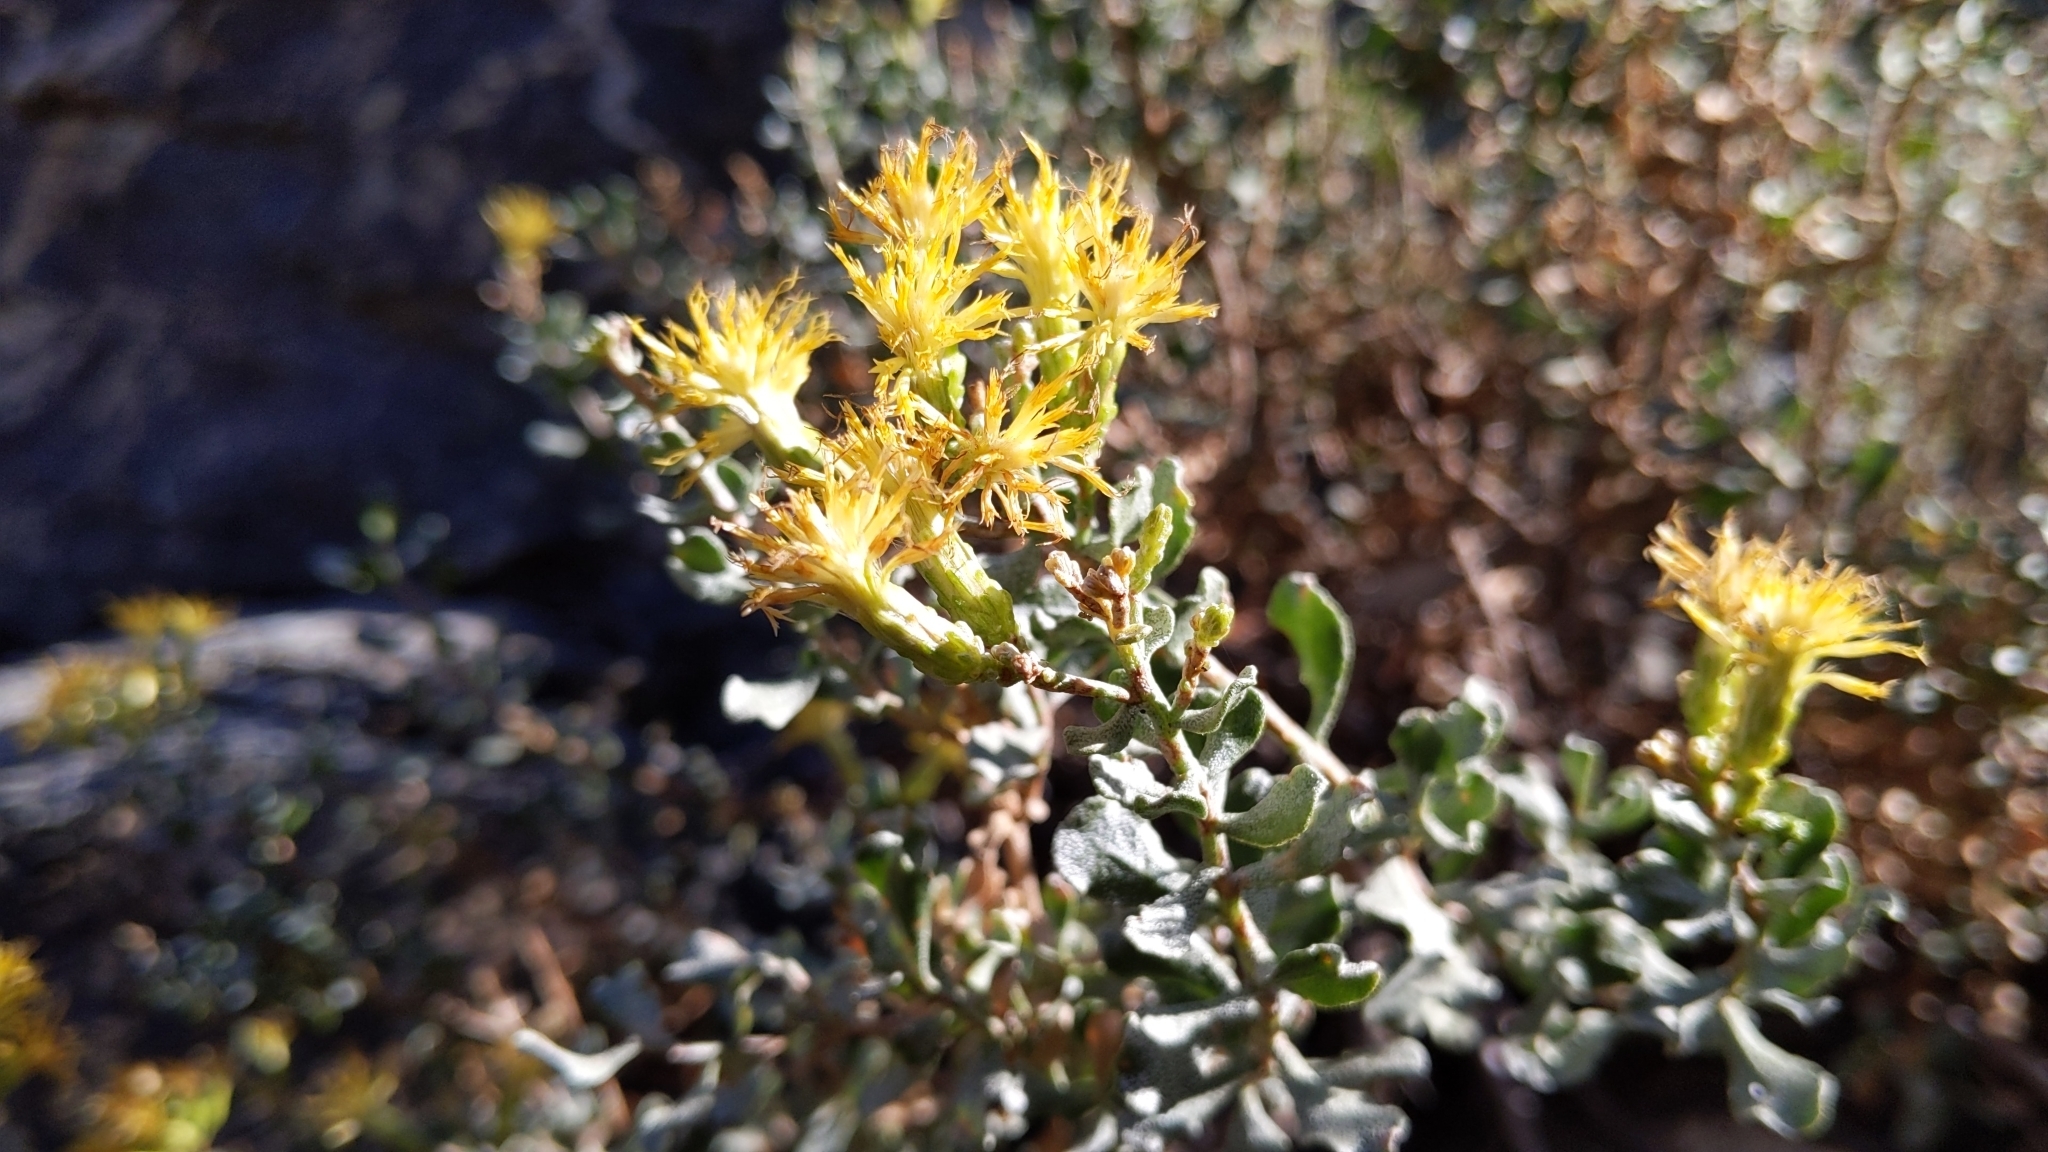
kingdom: Plantae
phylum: Tracheophyta
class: Magnoliopsida
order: Asterales
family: Asteraceae
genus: Ericameria
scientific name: Ericameria cuneata
